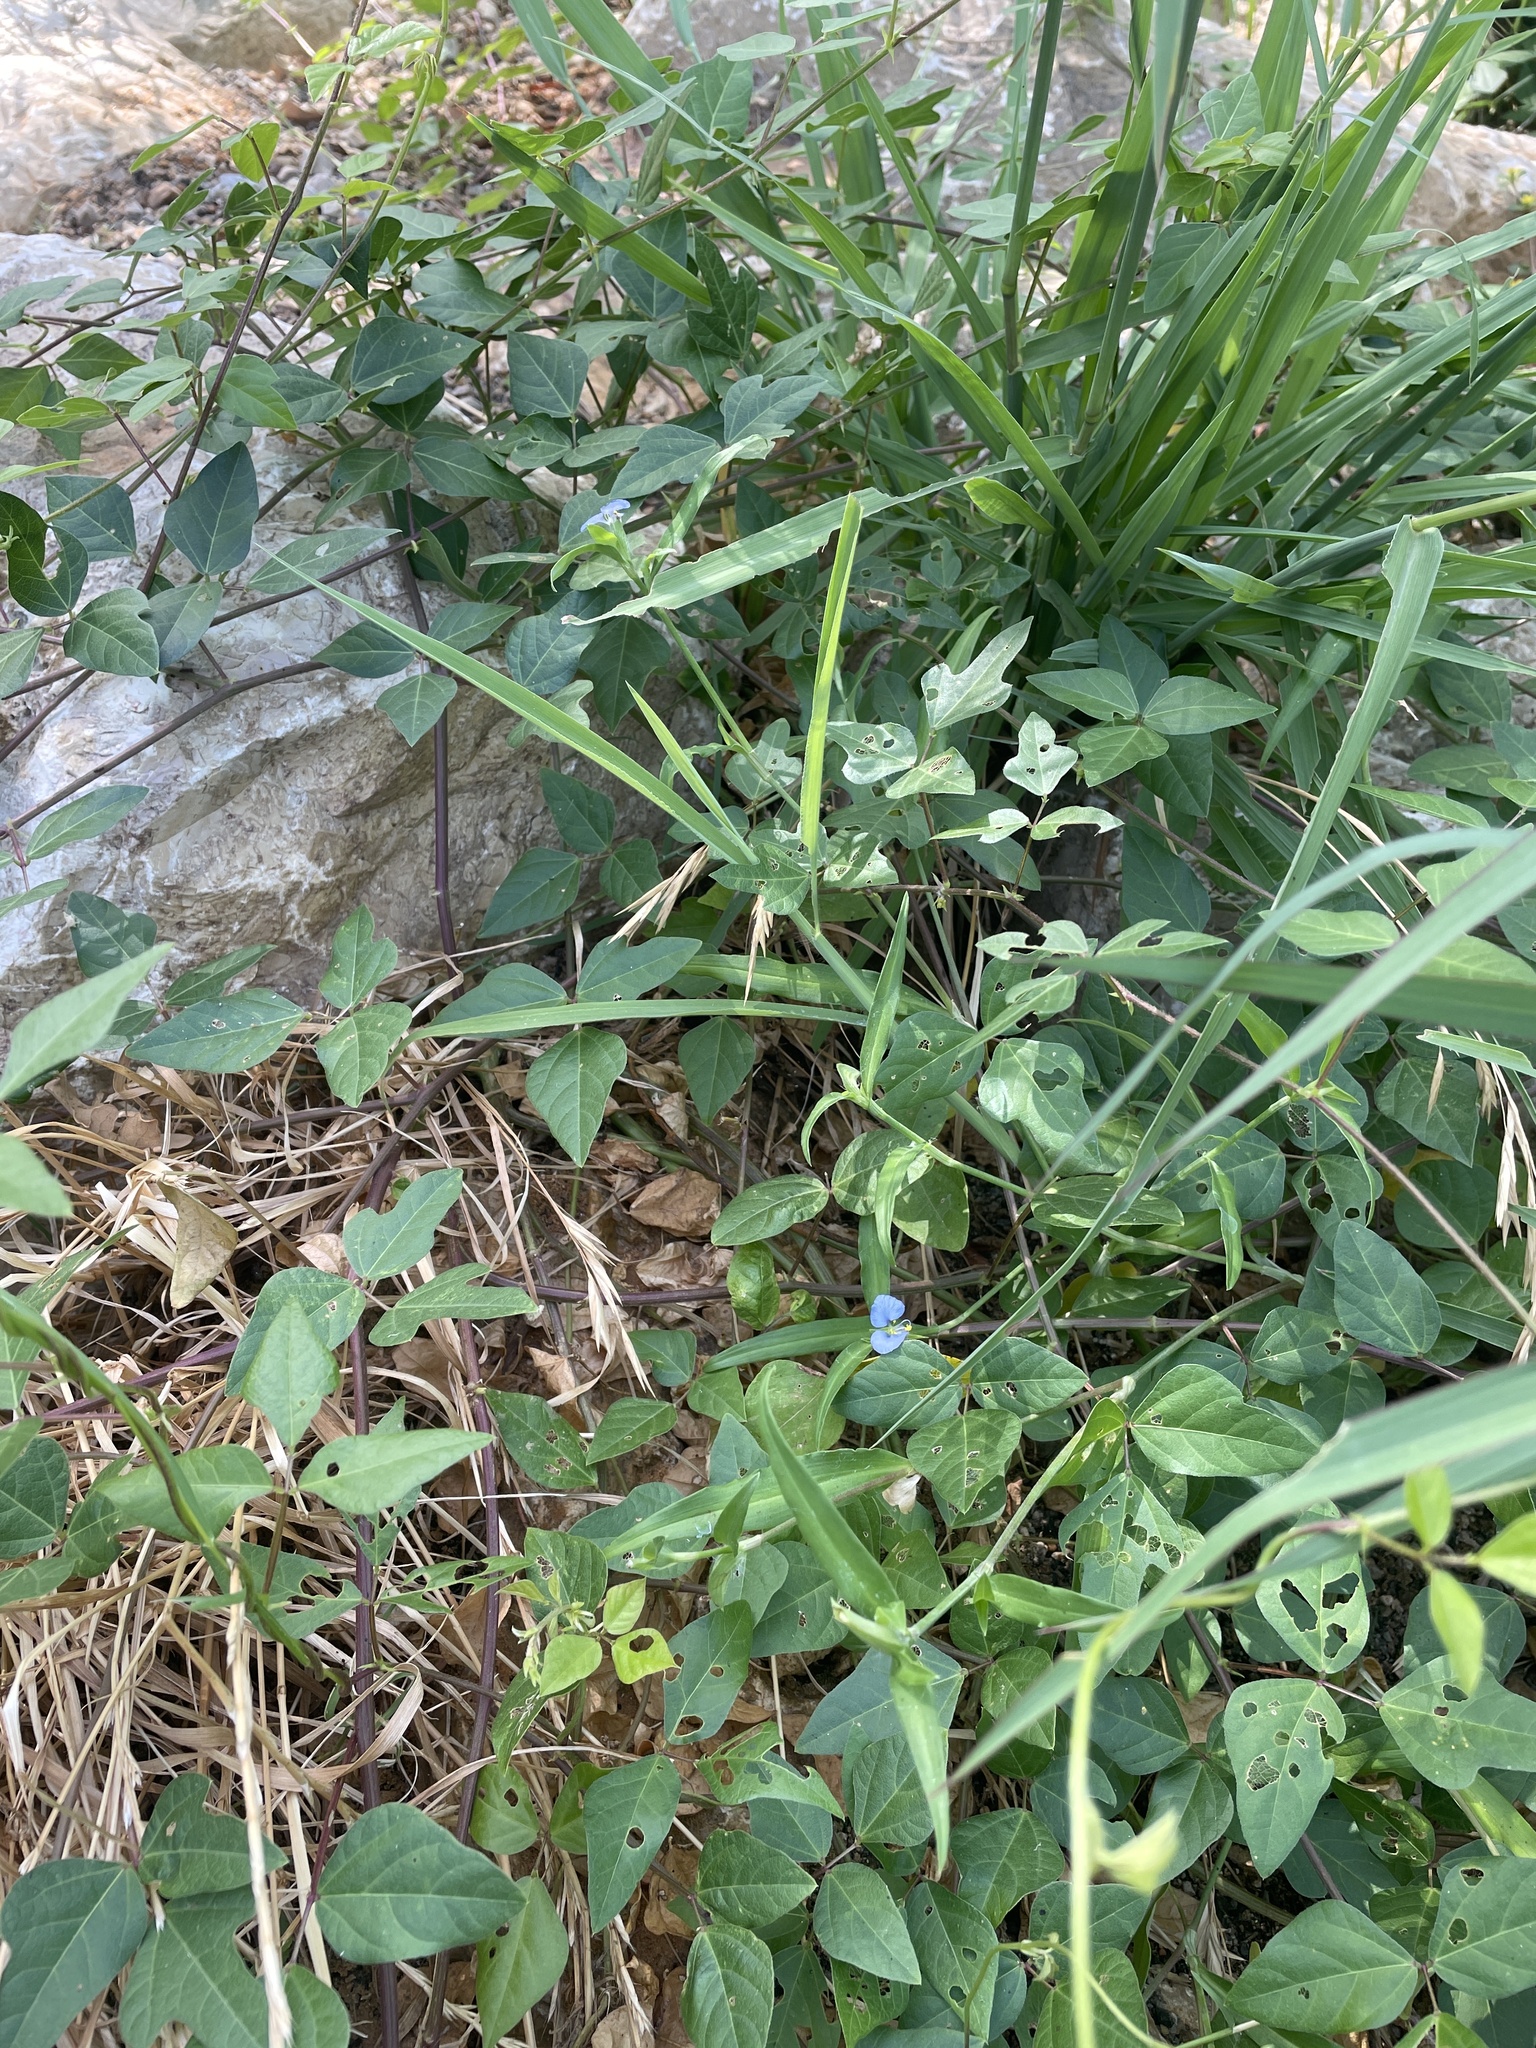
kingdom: Plantae
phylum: Tracheophyta
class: Liliopsida
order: Commelinales
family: Commelinaceae
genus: Commelina
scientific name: Commelina erecta
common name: Blousel blommetjie
